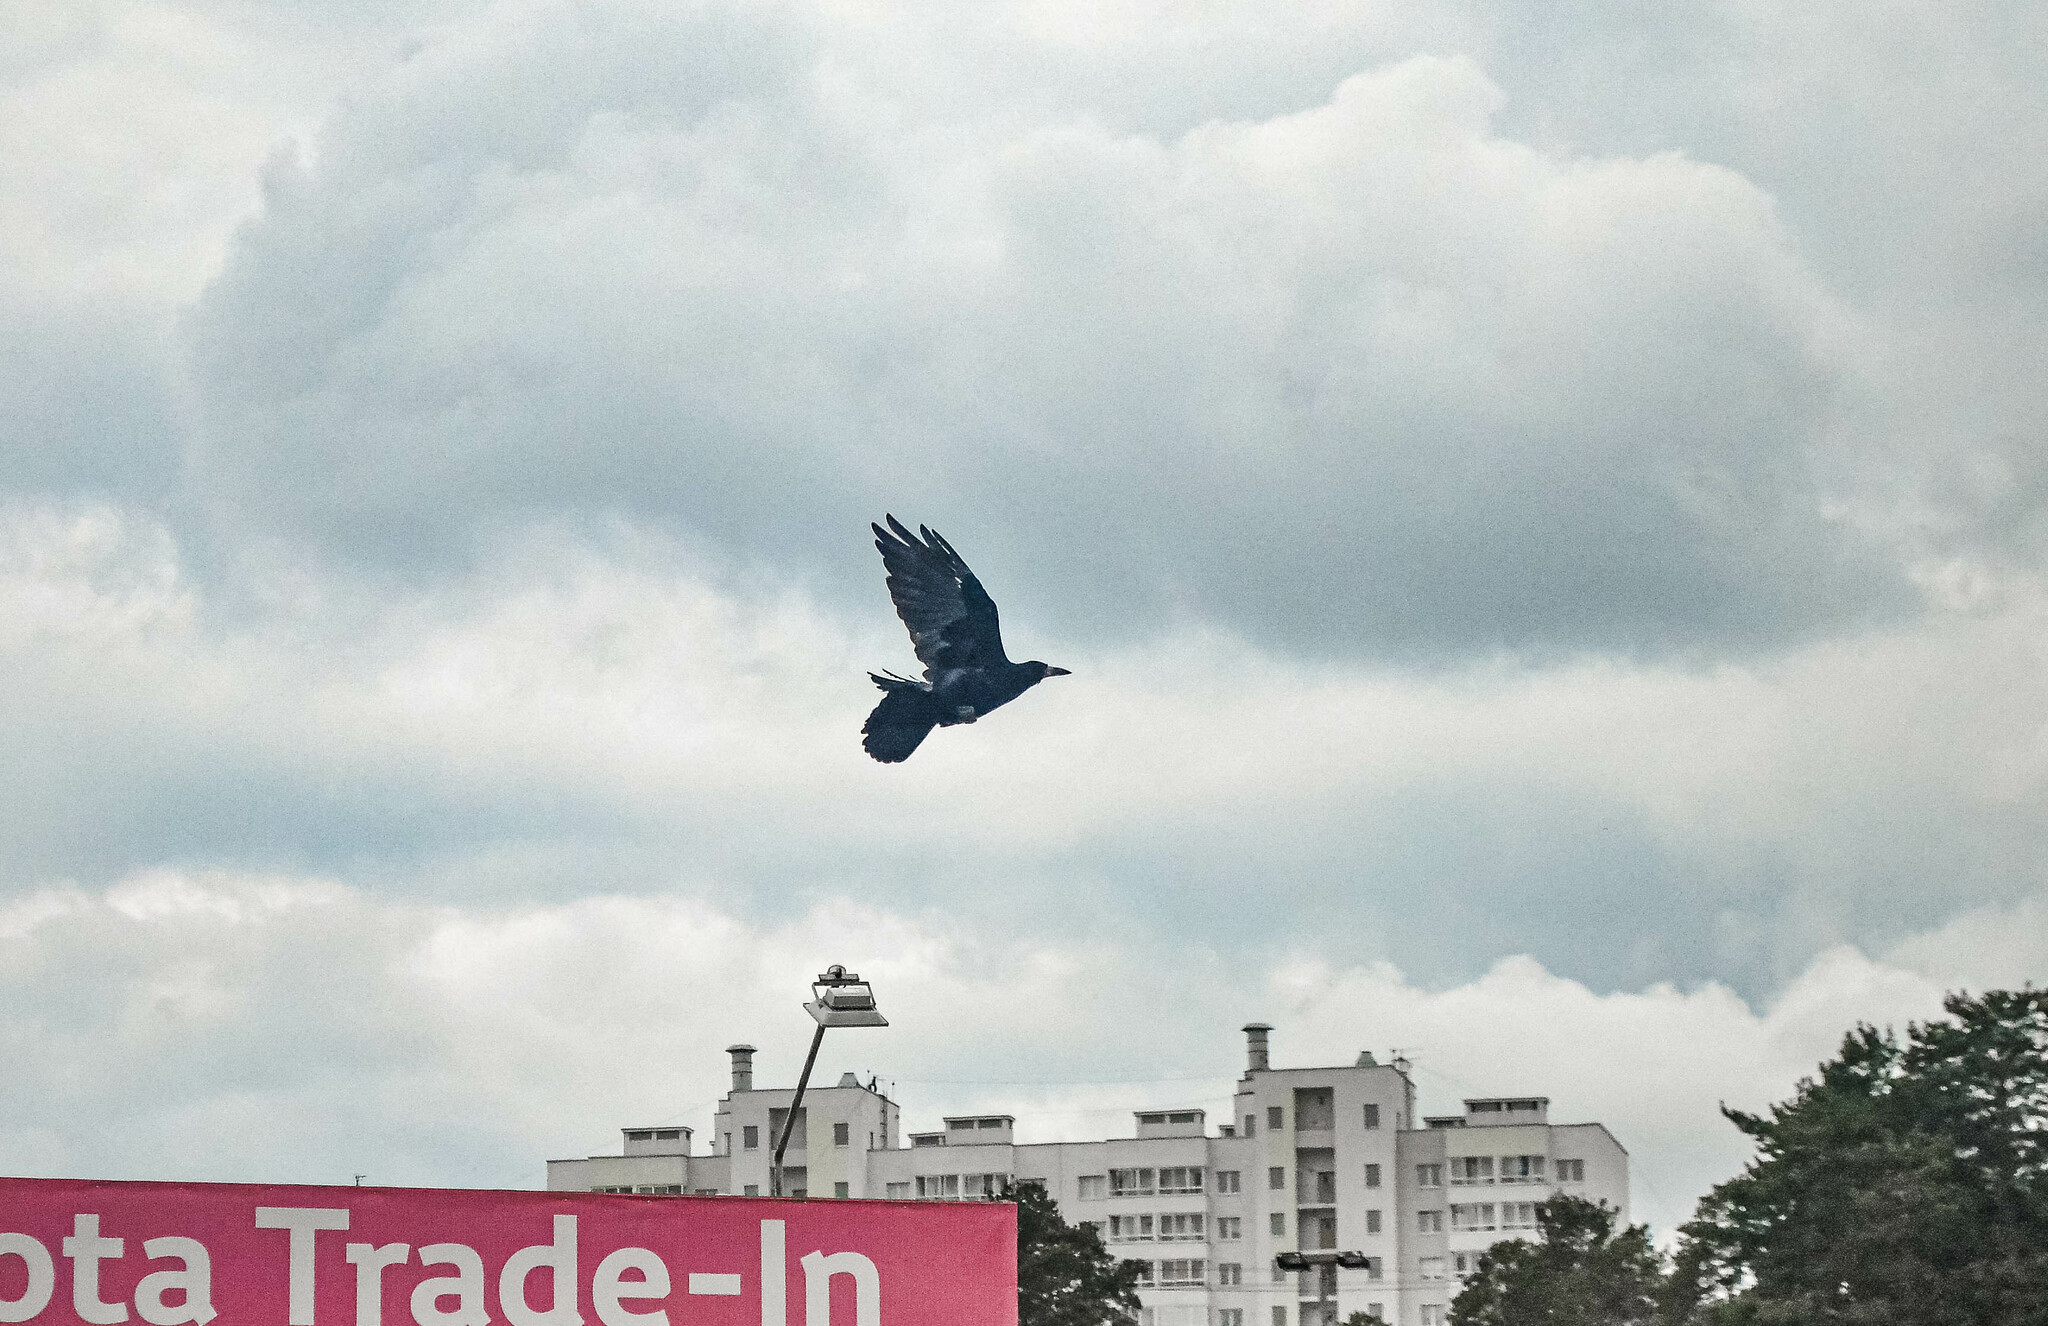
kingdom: Animalia
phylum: Chordata
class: Aves
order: Passeriformes
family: Corvidae
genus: Corvus
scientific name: Corvus frugilegus
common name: Rook
